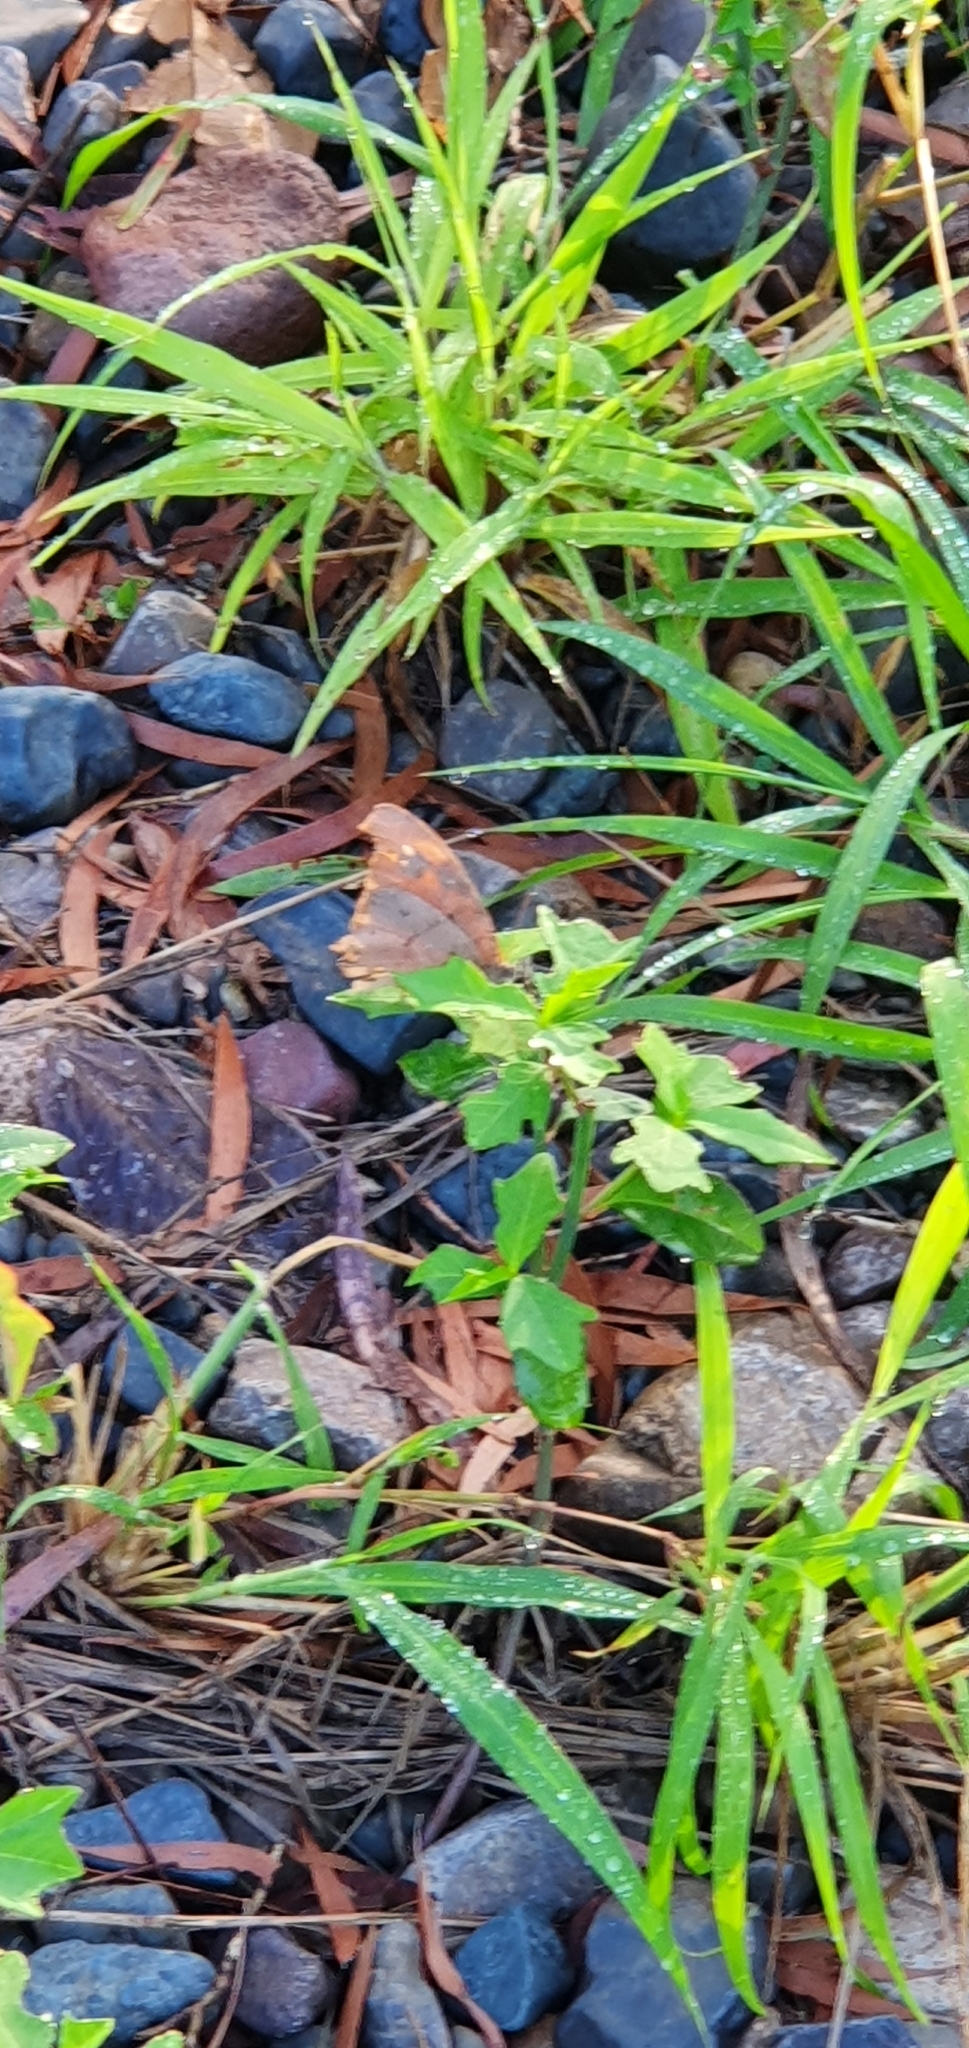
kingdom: Animalia
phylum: Arthropoda
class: Insecta
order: Lepidoptera
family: Nymphalidae
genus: Melanitis
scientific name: Melanitis leda
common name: Twilight brown
